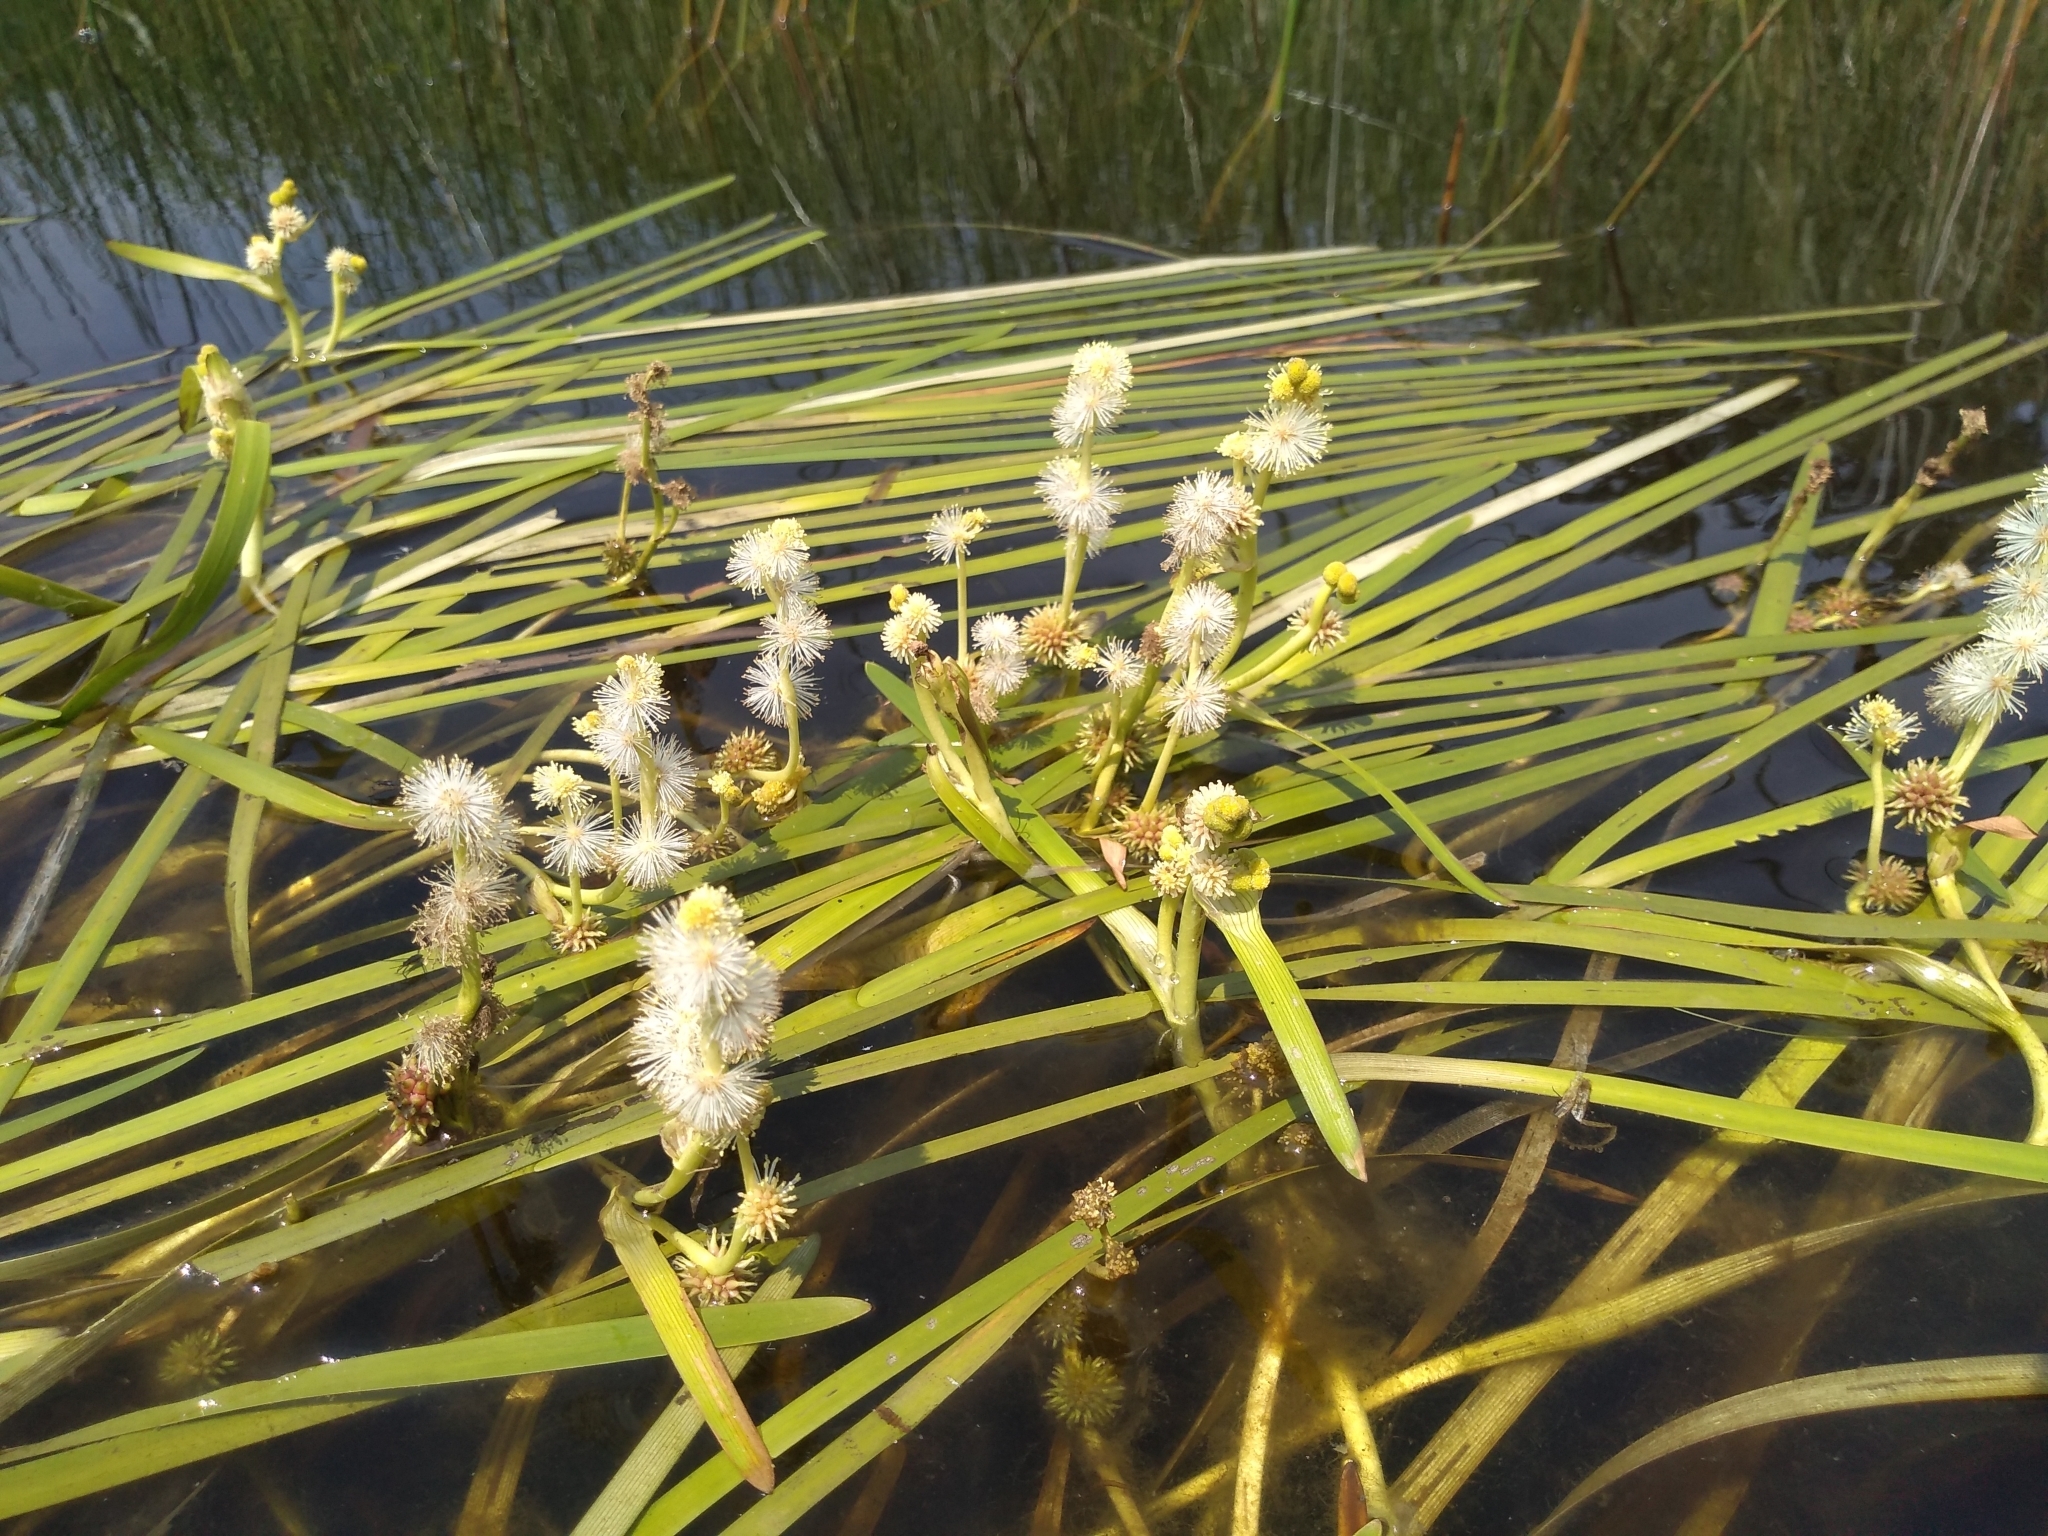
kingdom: Plantae
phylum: Tracheophyta
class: Liliopsida
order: Poales
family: Typhaceae
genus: Sparganium
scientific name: Sparganium angustifolium
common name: Floating bur-reed
